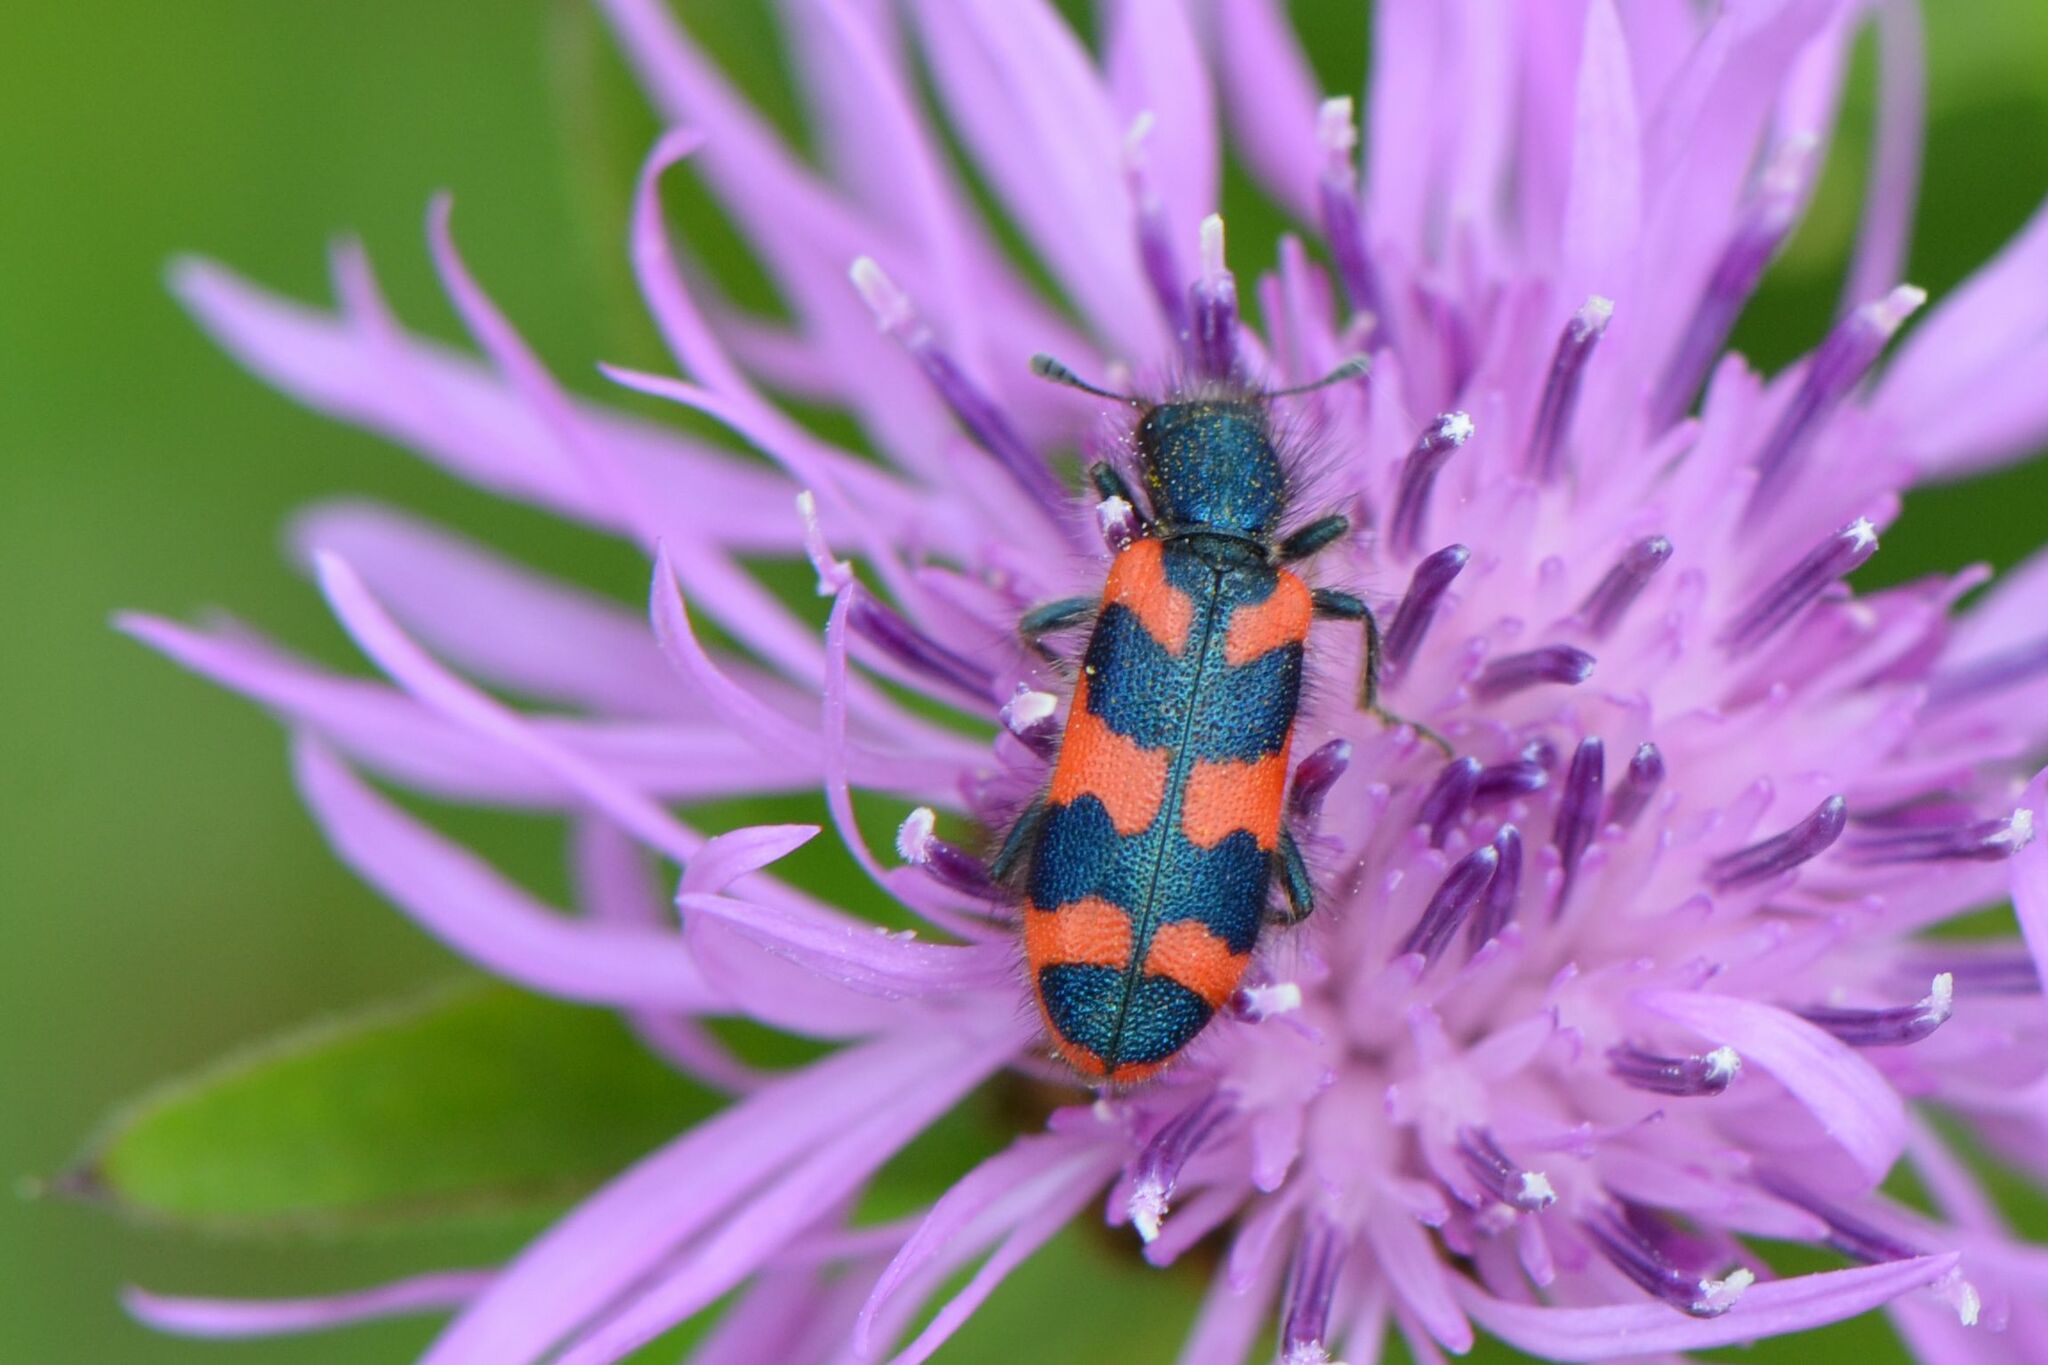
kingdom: Animalia
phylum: Arthropoda
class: Insecta
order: Coleoptera
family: Cleridae
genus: Trichodes
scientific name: Trichodes alvearius
